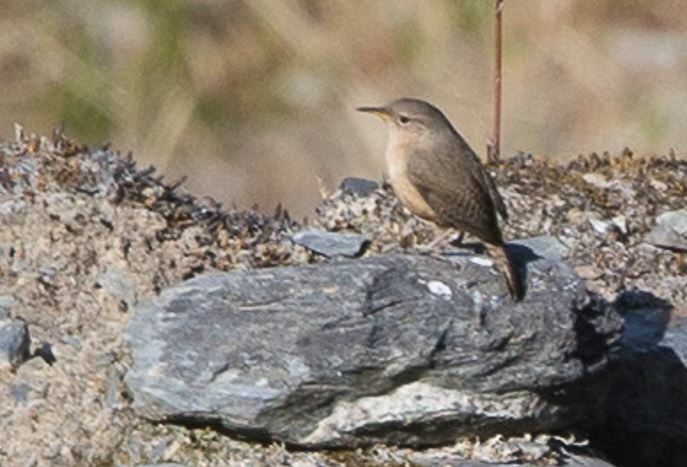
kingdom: Animalia
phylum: Chordata
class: Aves
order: Passeriformes
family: Troglodytidae
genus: Troglodytes
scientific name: Troglodytes aedon
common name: House wren
